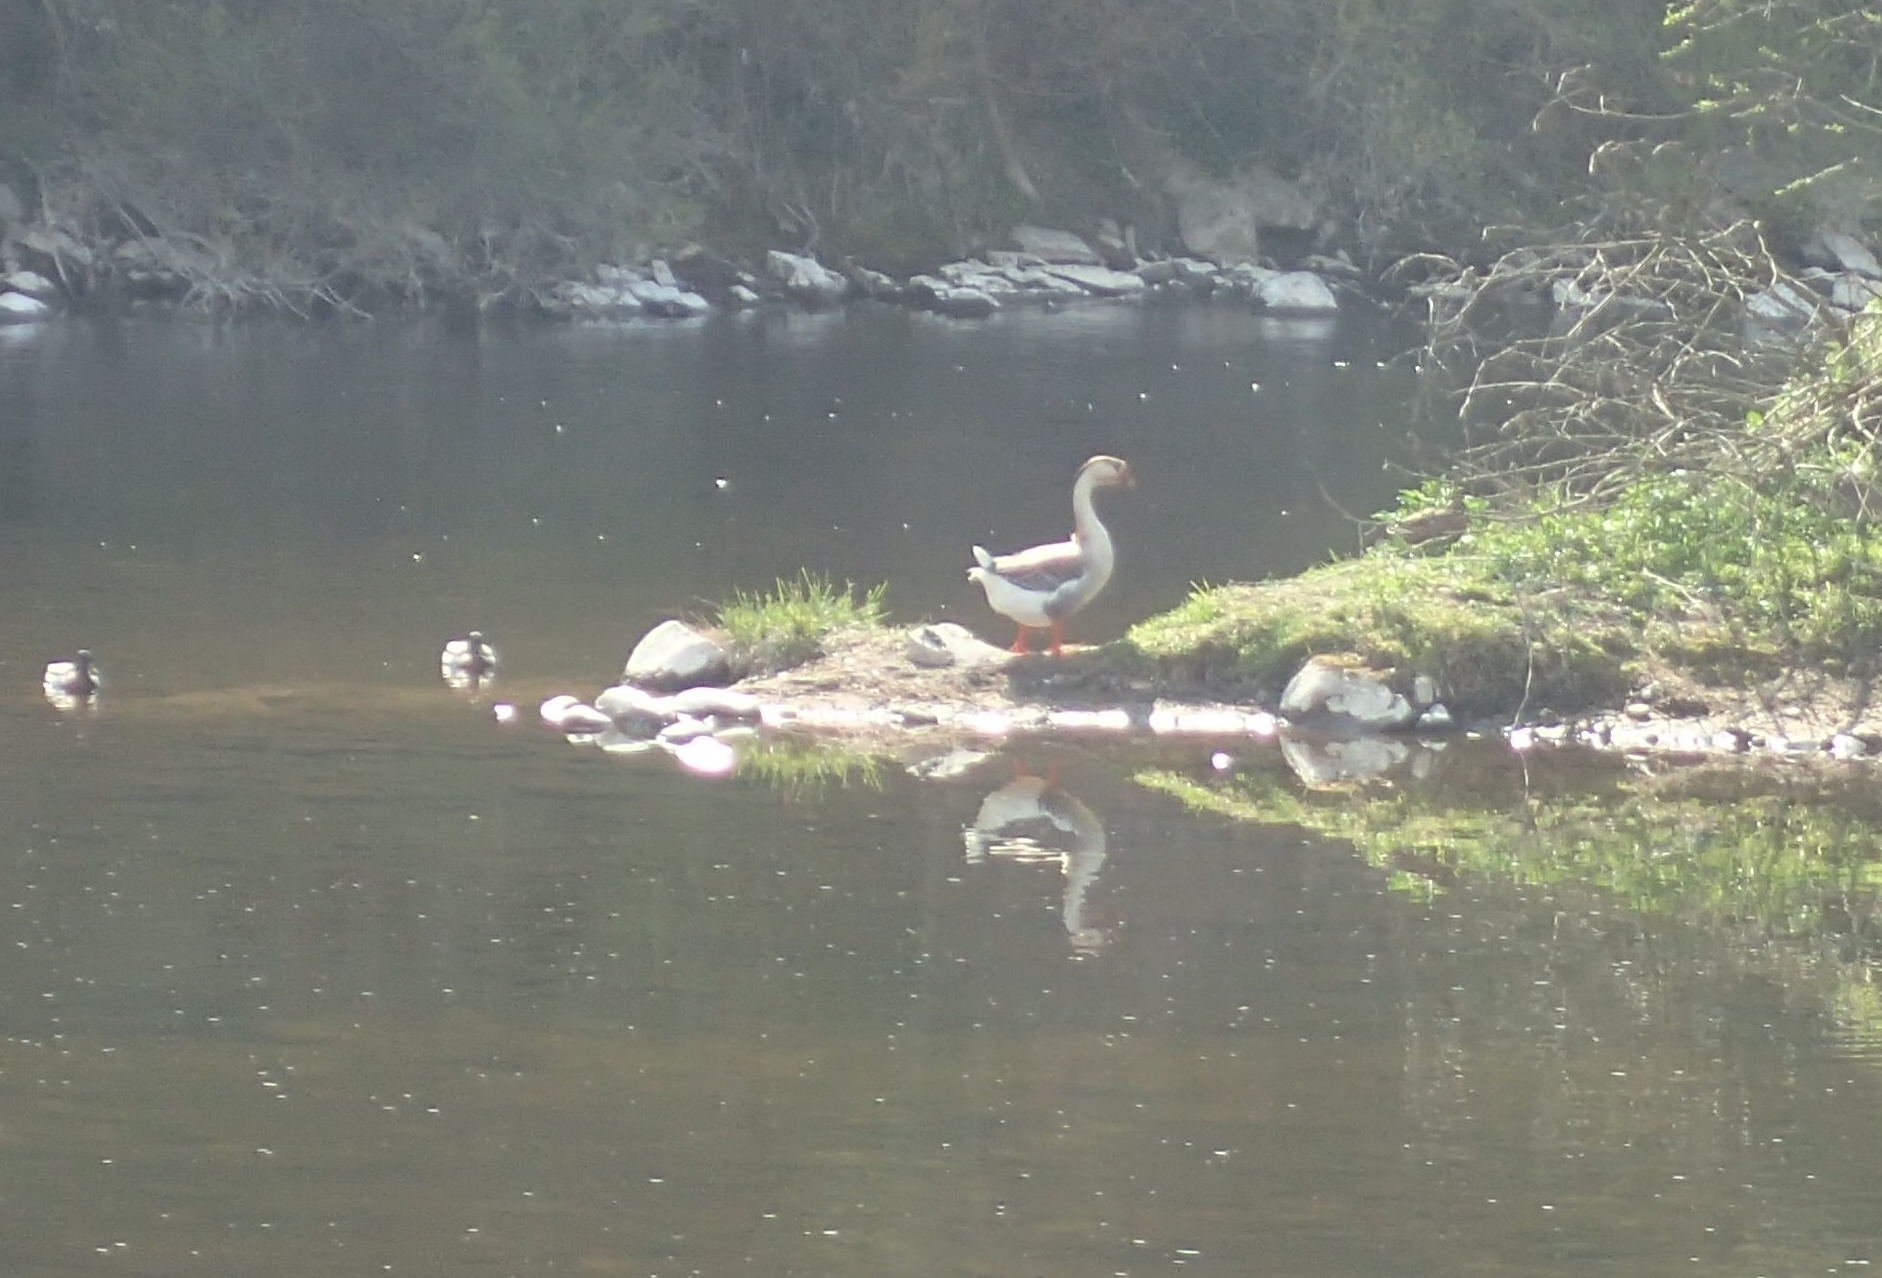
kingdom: Animalia
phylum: Chordata
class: Aves
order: Anseriformes
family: Anatidae
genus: Anser
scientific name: Anser cygnoides
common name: Swan goose
